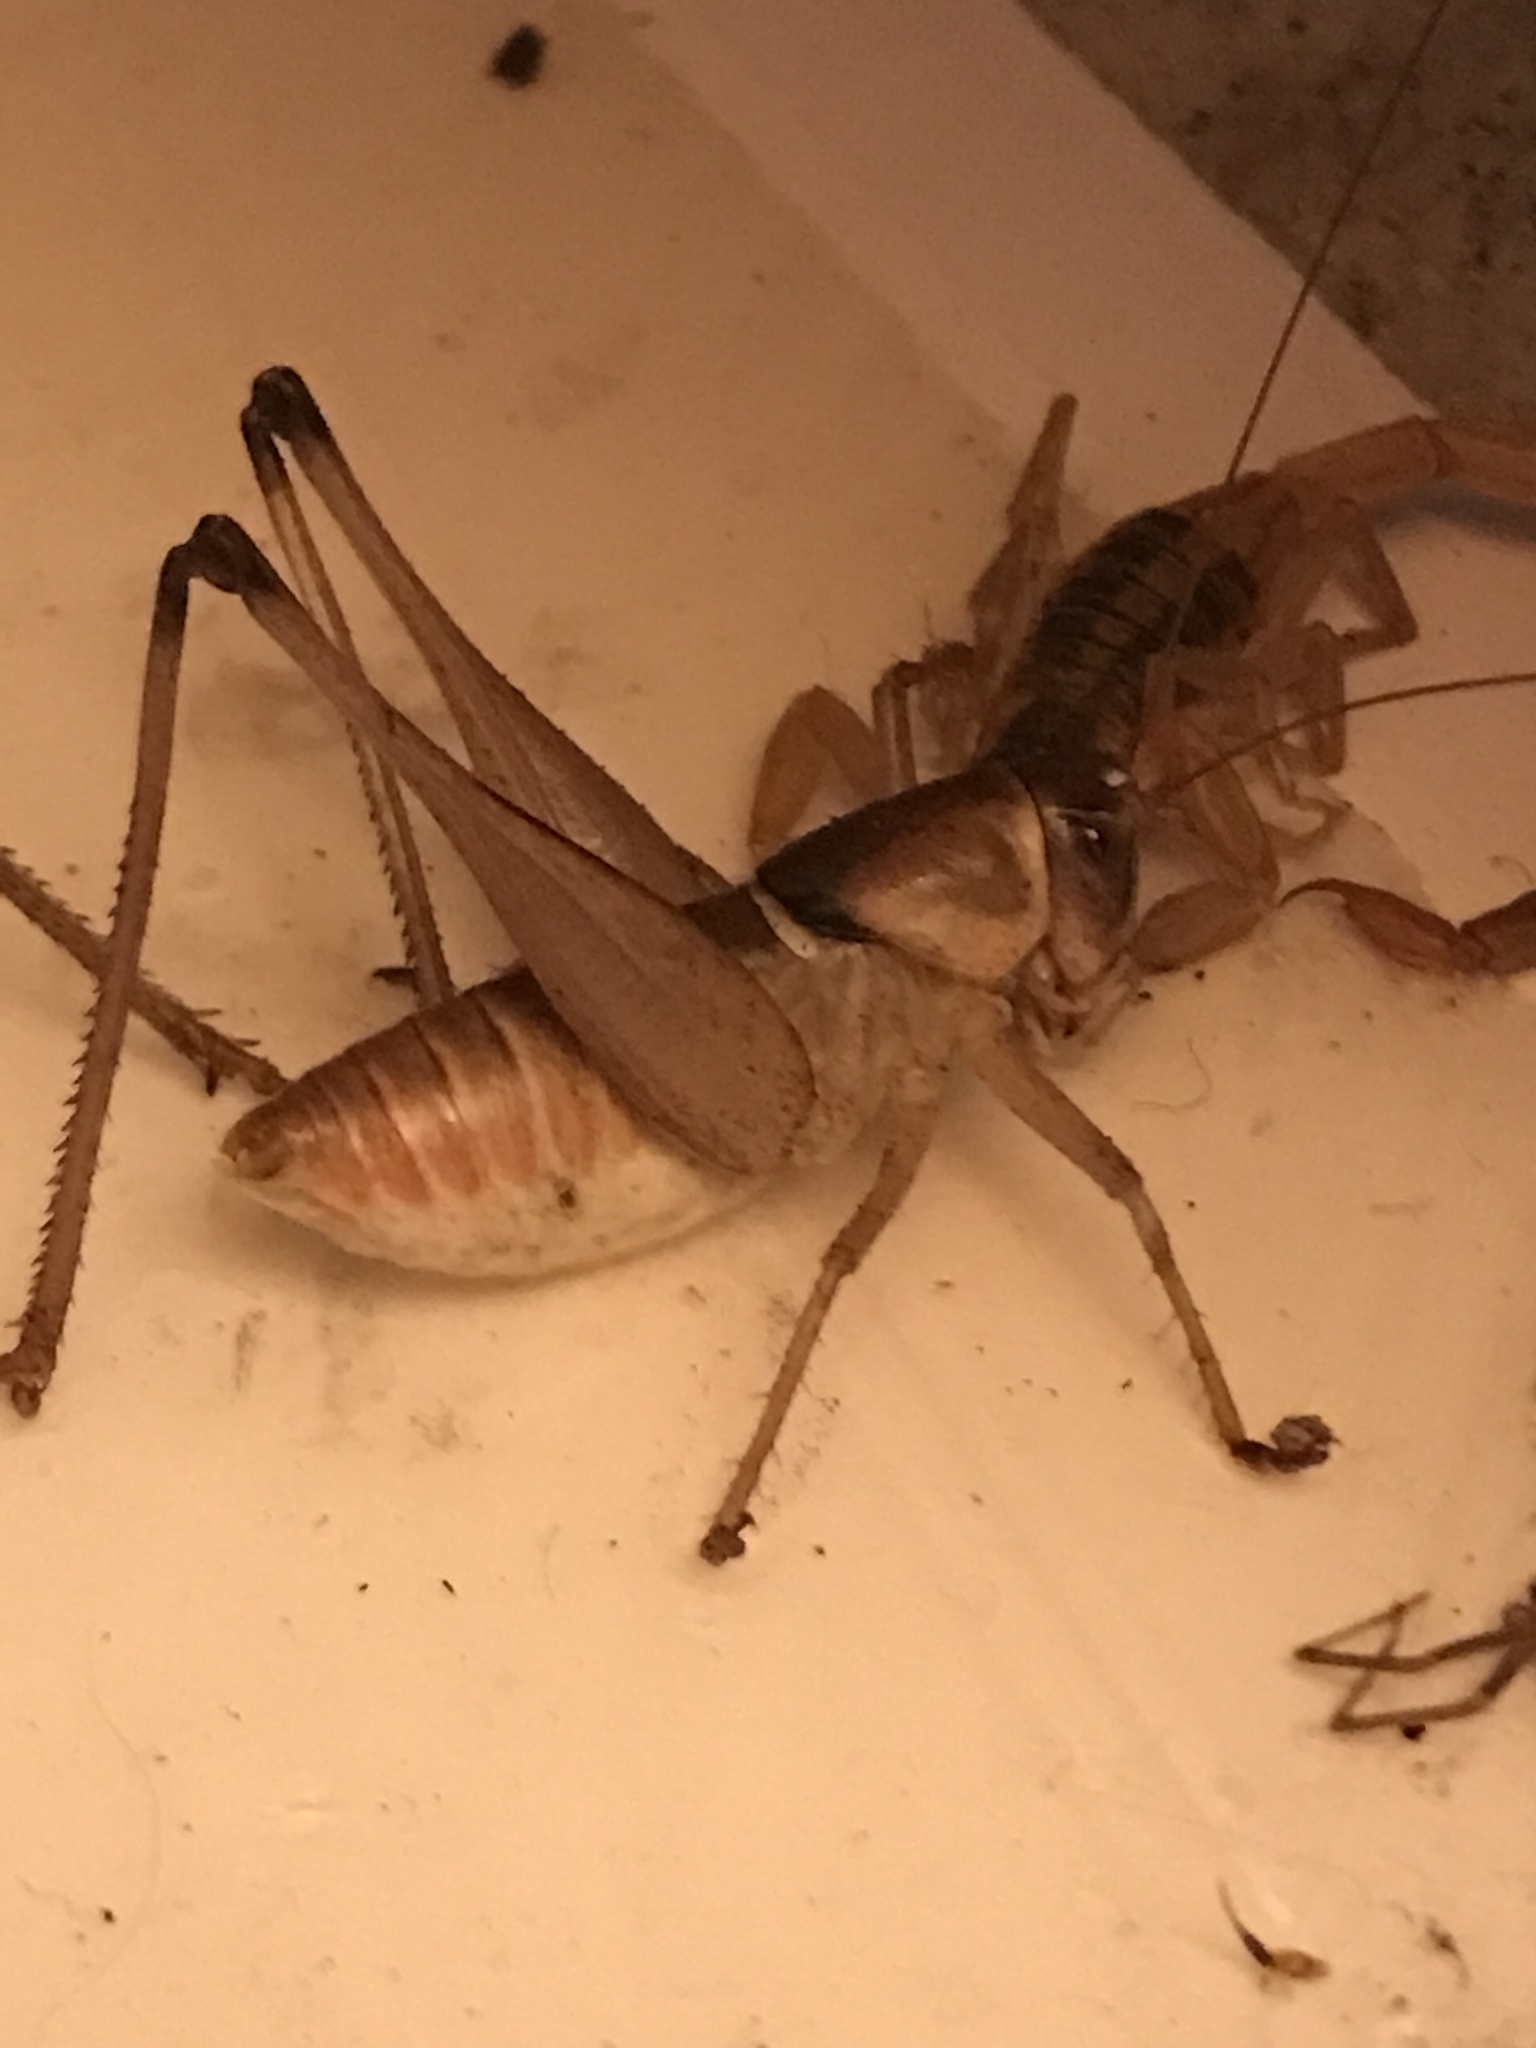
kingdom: Animalia
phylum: Arthropoda
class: Insecta
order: Orthoptera
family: Tettigoniidae
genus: Pediodectes
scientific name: Pediodectes bruneri
